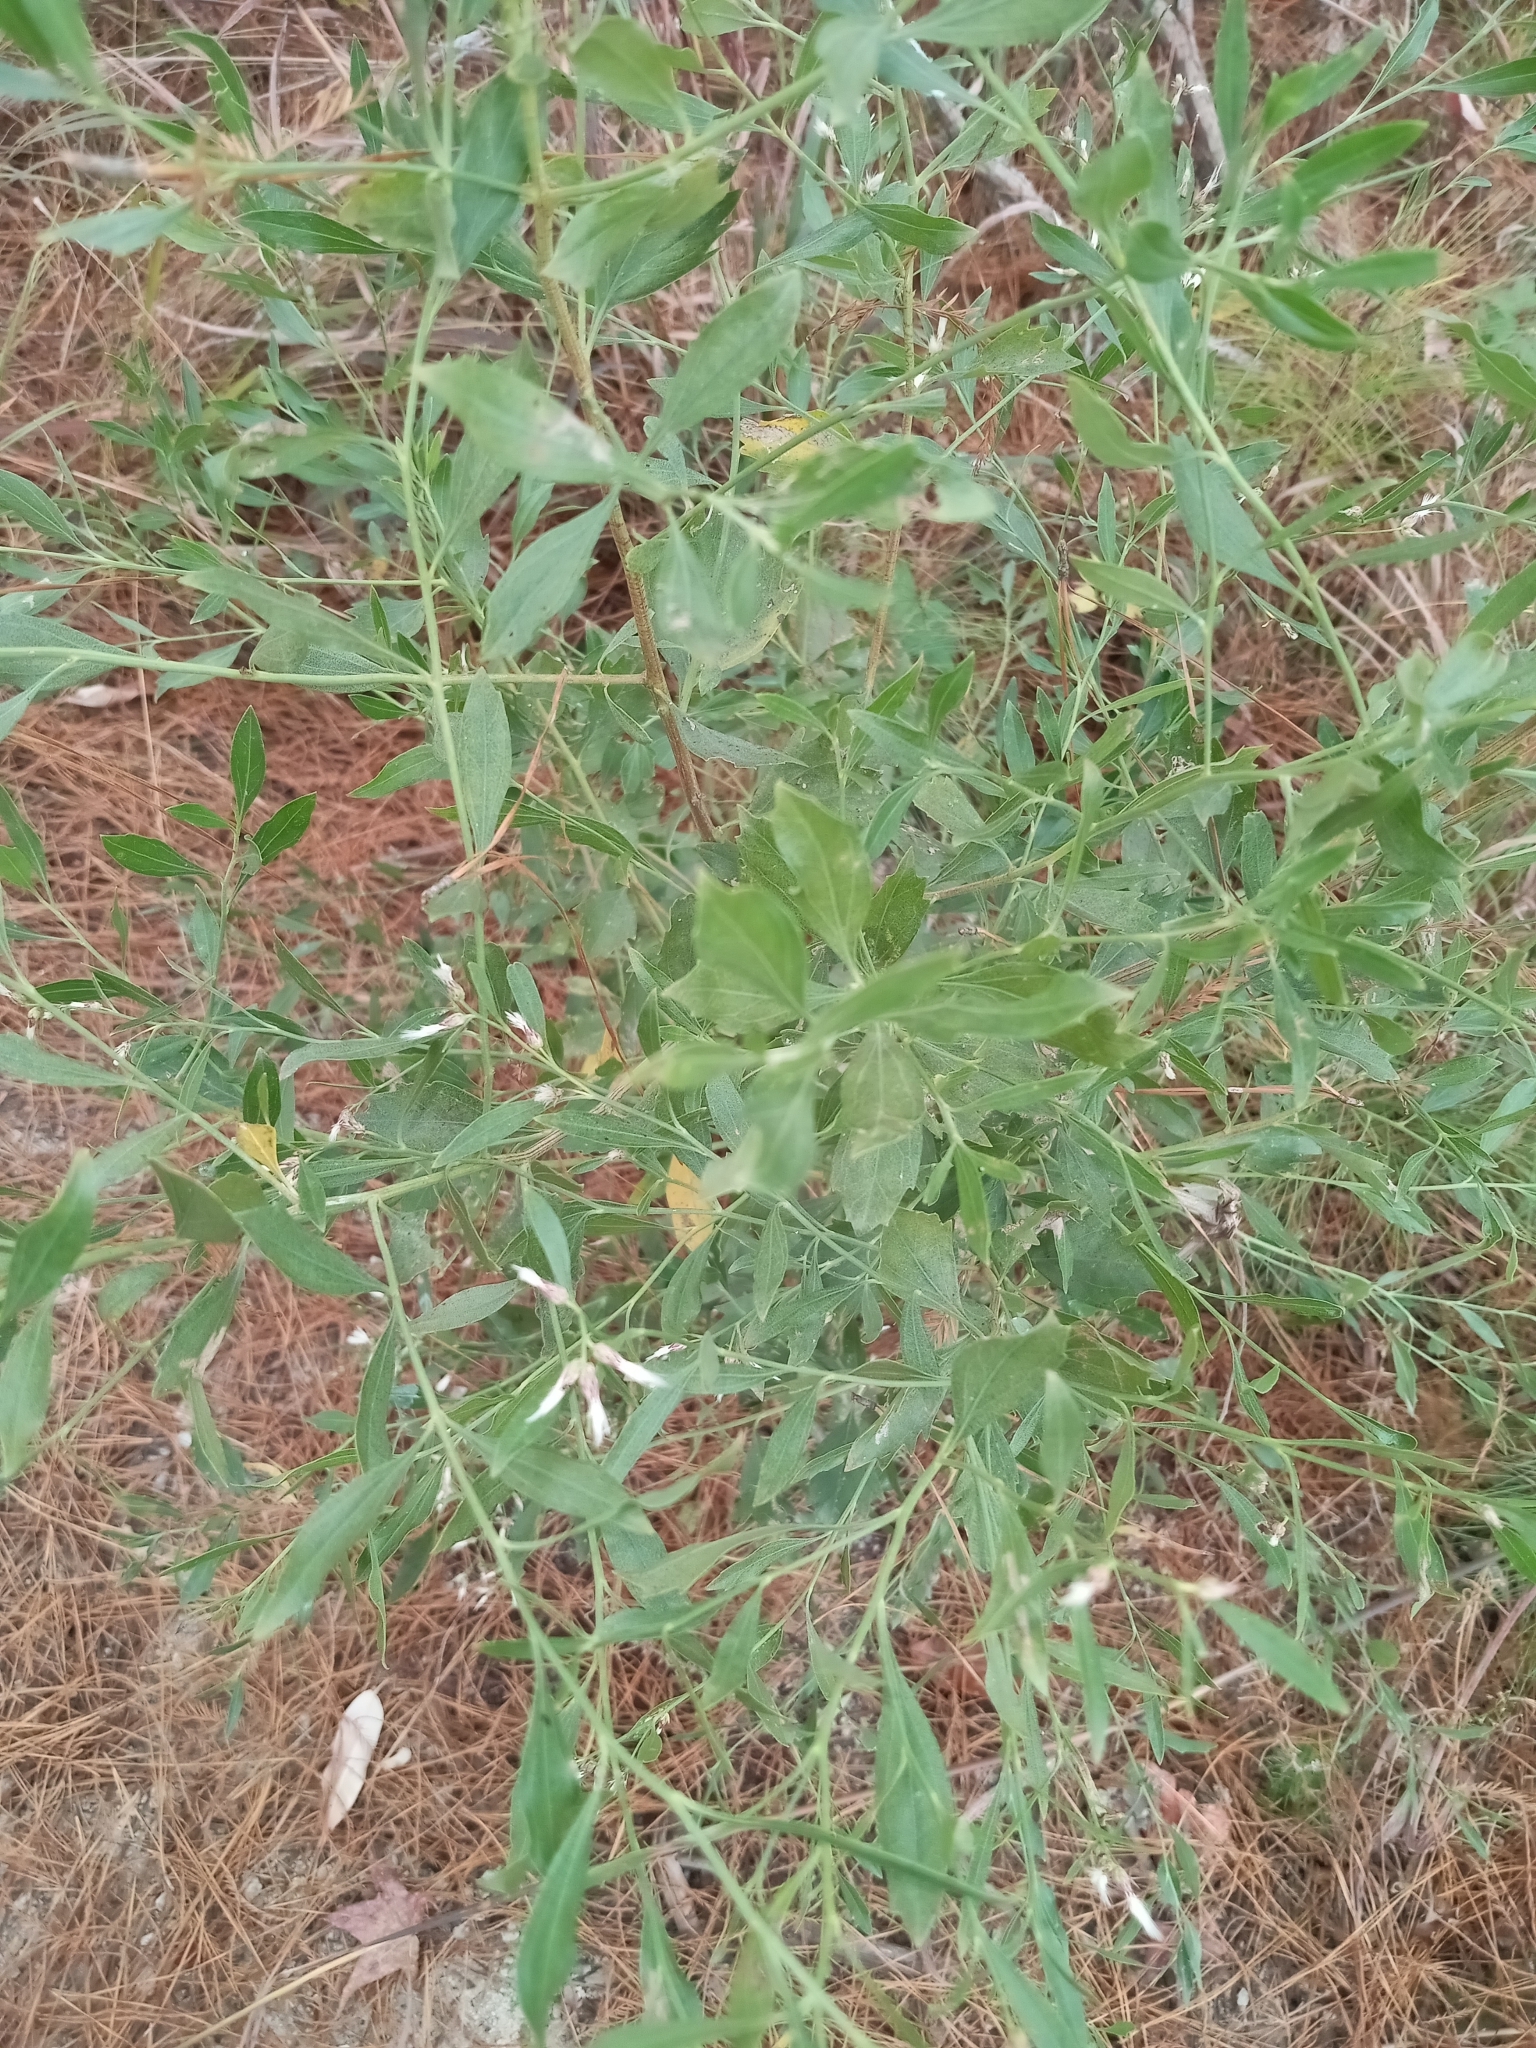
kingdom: Plantae
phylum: Tracheophyta
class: Magnoliopsida
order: Asterales
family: Asteraceae
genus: Baccharis
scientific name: Baccharis halimifolia
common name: Eastern baccharis
